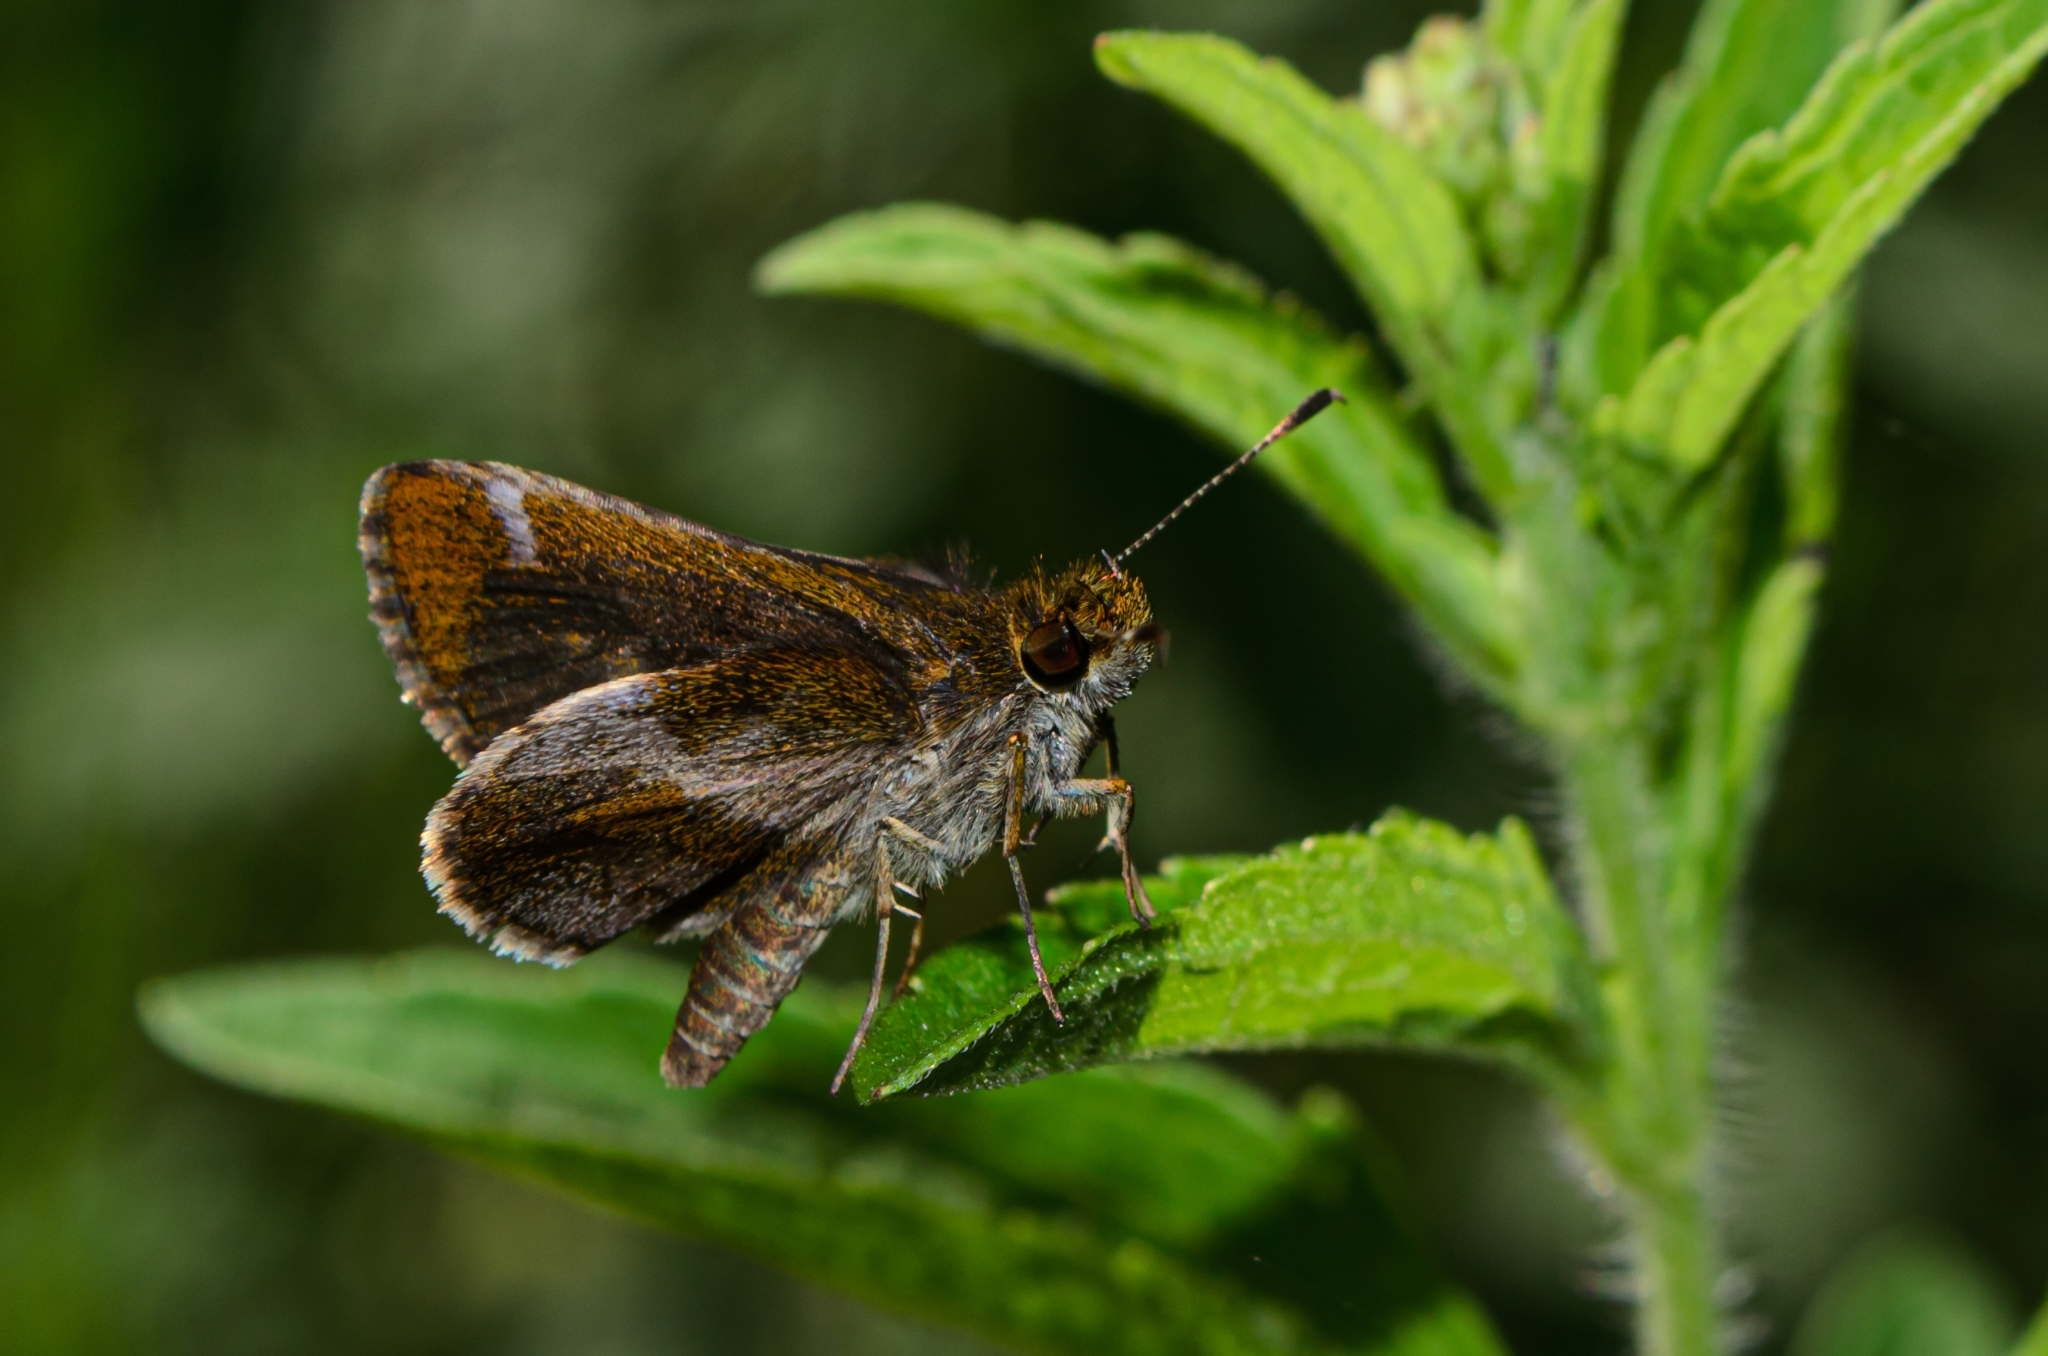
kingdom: Animalia
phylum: Arthropoda
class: Insecta
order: Lepidoptera
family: Hesperiidae
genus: Callimormus
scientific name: Callimormus
